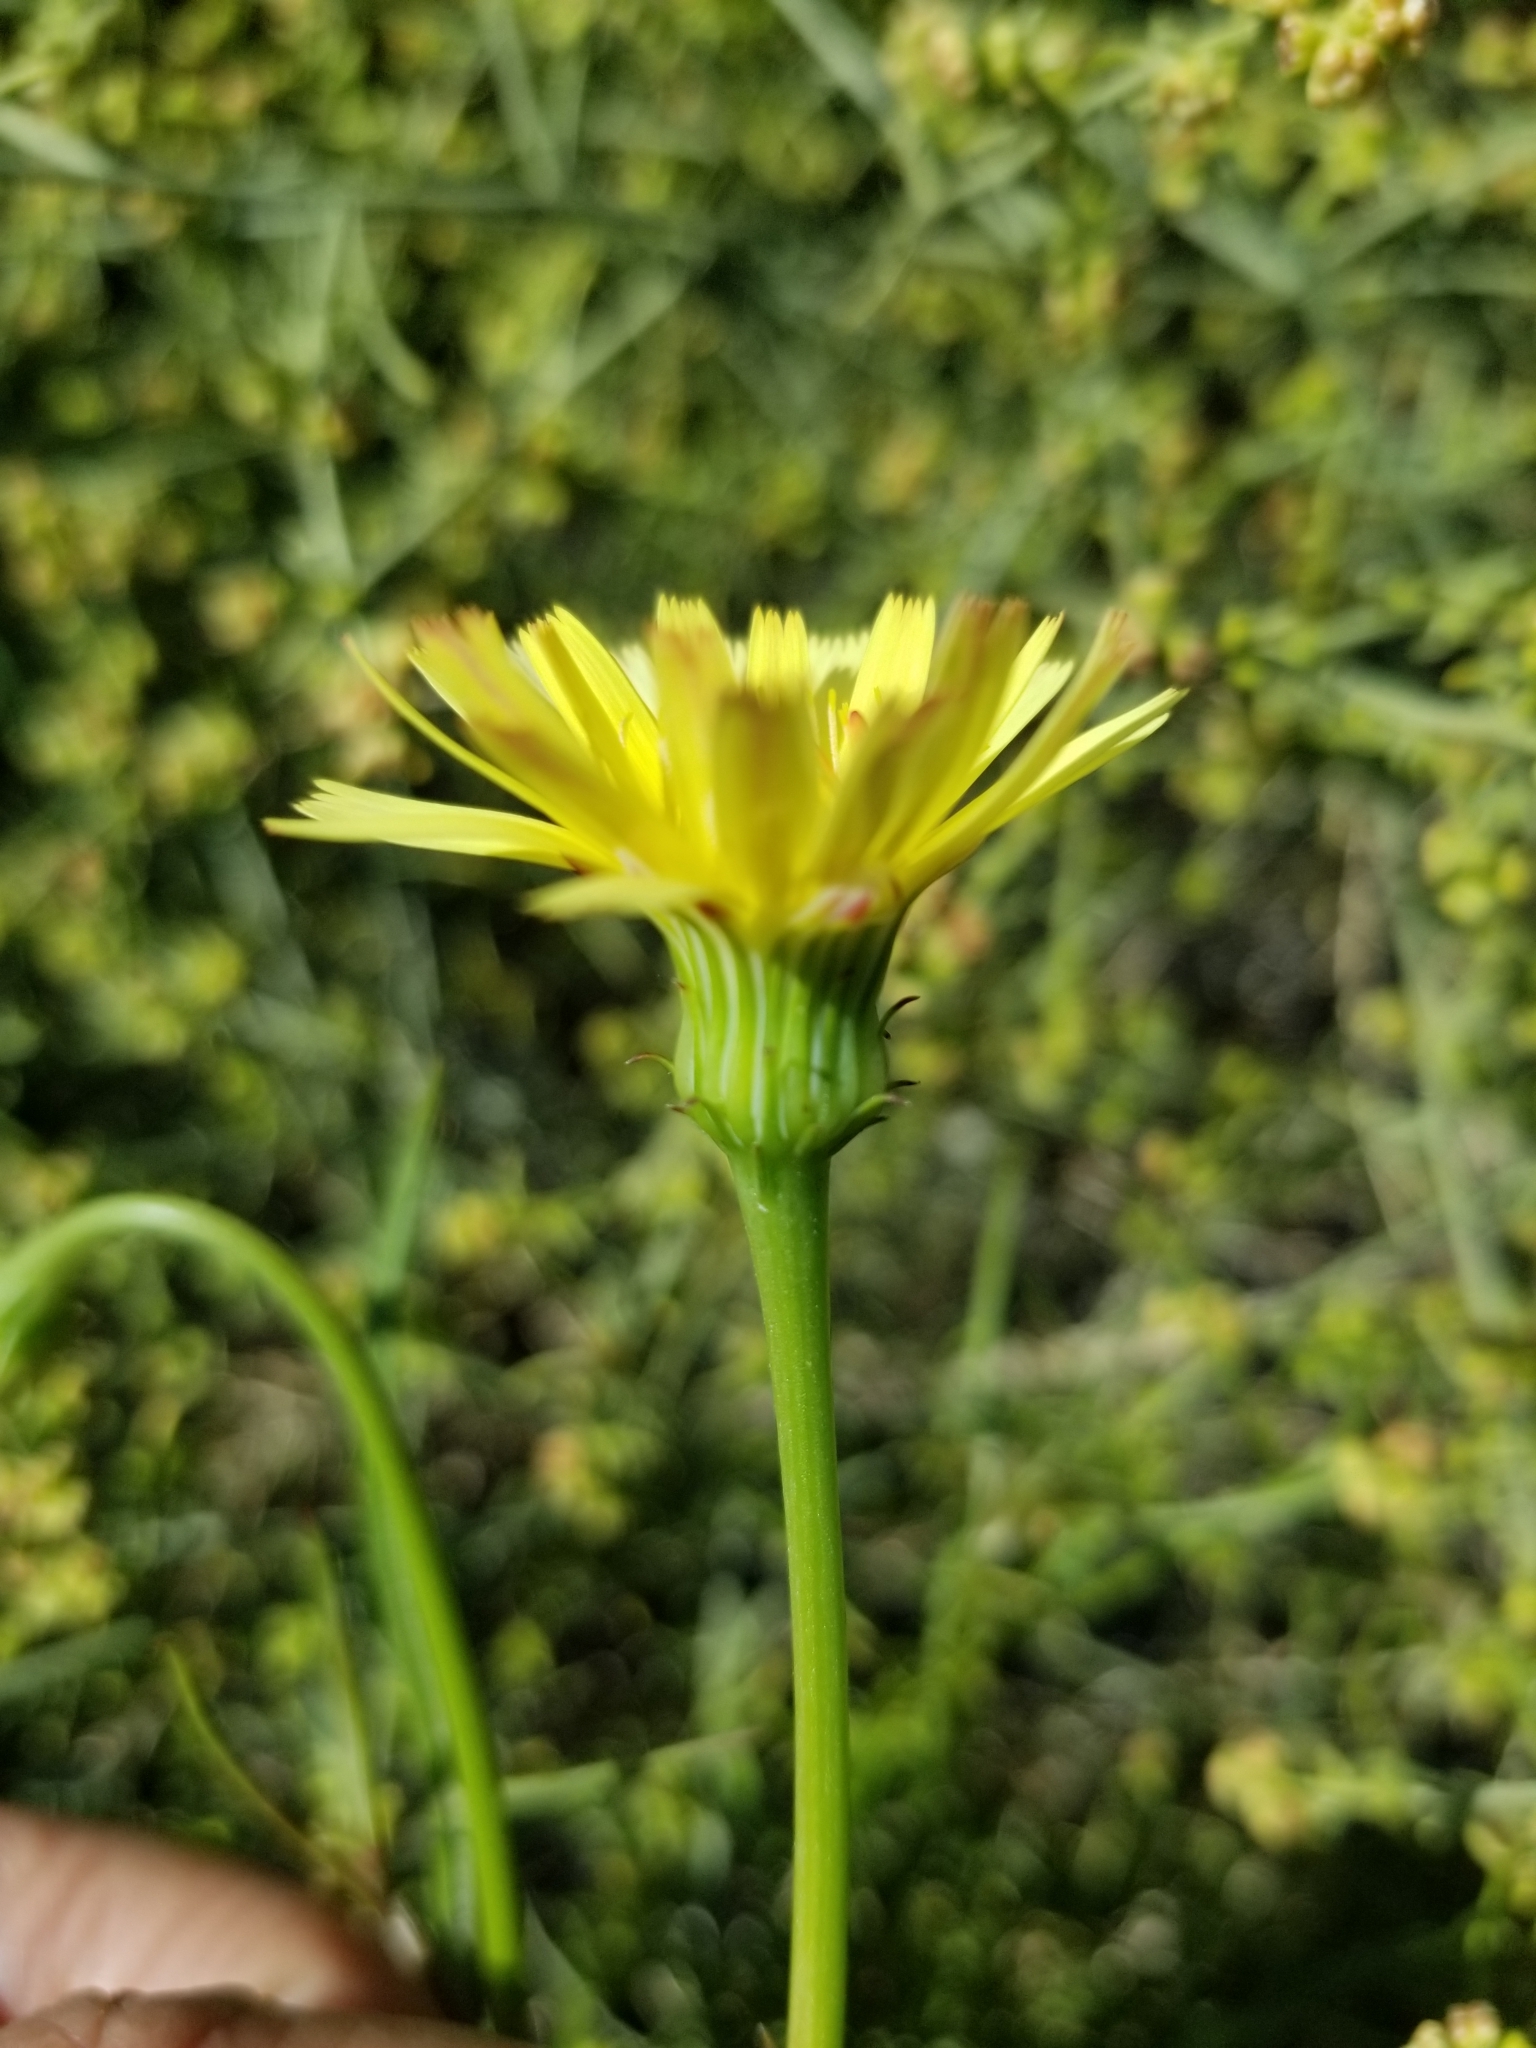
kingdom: Plantae
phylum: Tracheophyta
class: Magnoliopsida
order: Asterales
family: Asteraceae
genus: Malacothrix
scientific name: Malacothrix glabrata
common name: Smooth desert-dandelion
